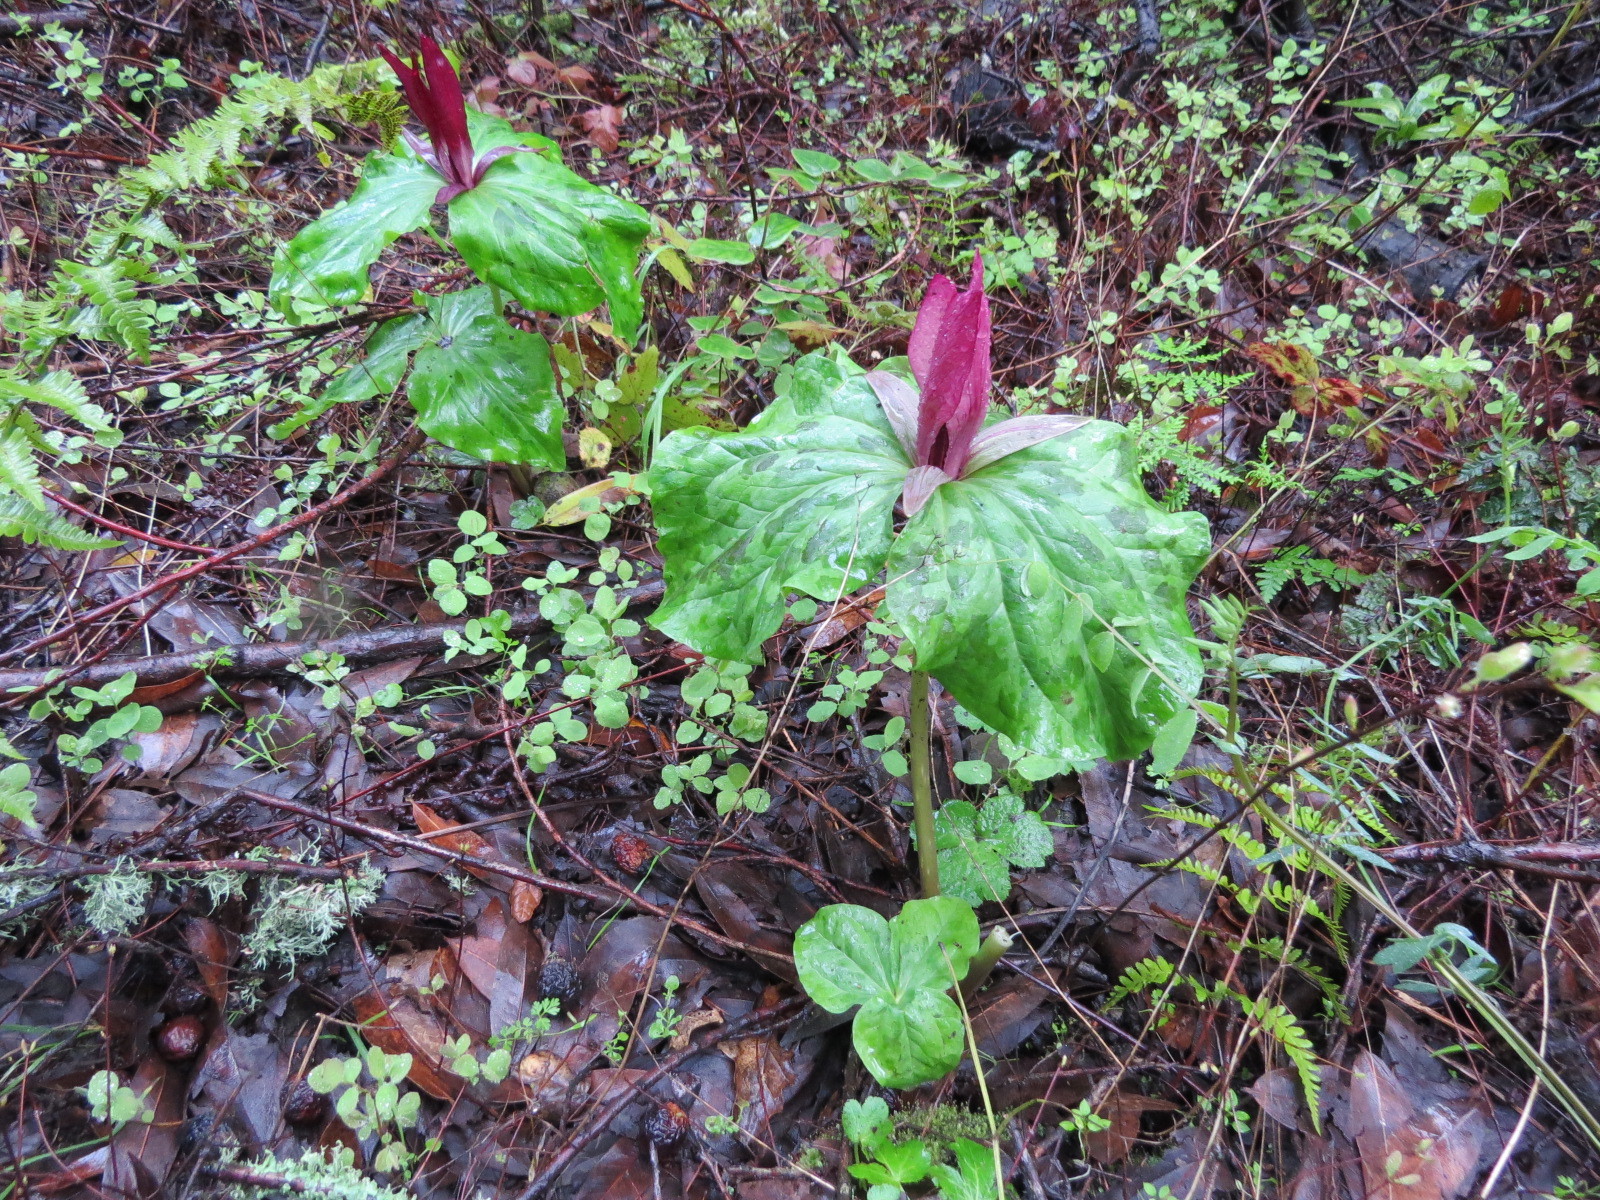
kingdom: Plantae
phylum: Tracheophyta
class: Liliopsida
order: Liliales
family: Melanthiaceae
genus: Trillium
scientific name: Trillium chloropetalum
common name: Giant trillium
